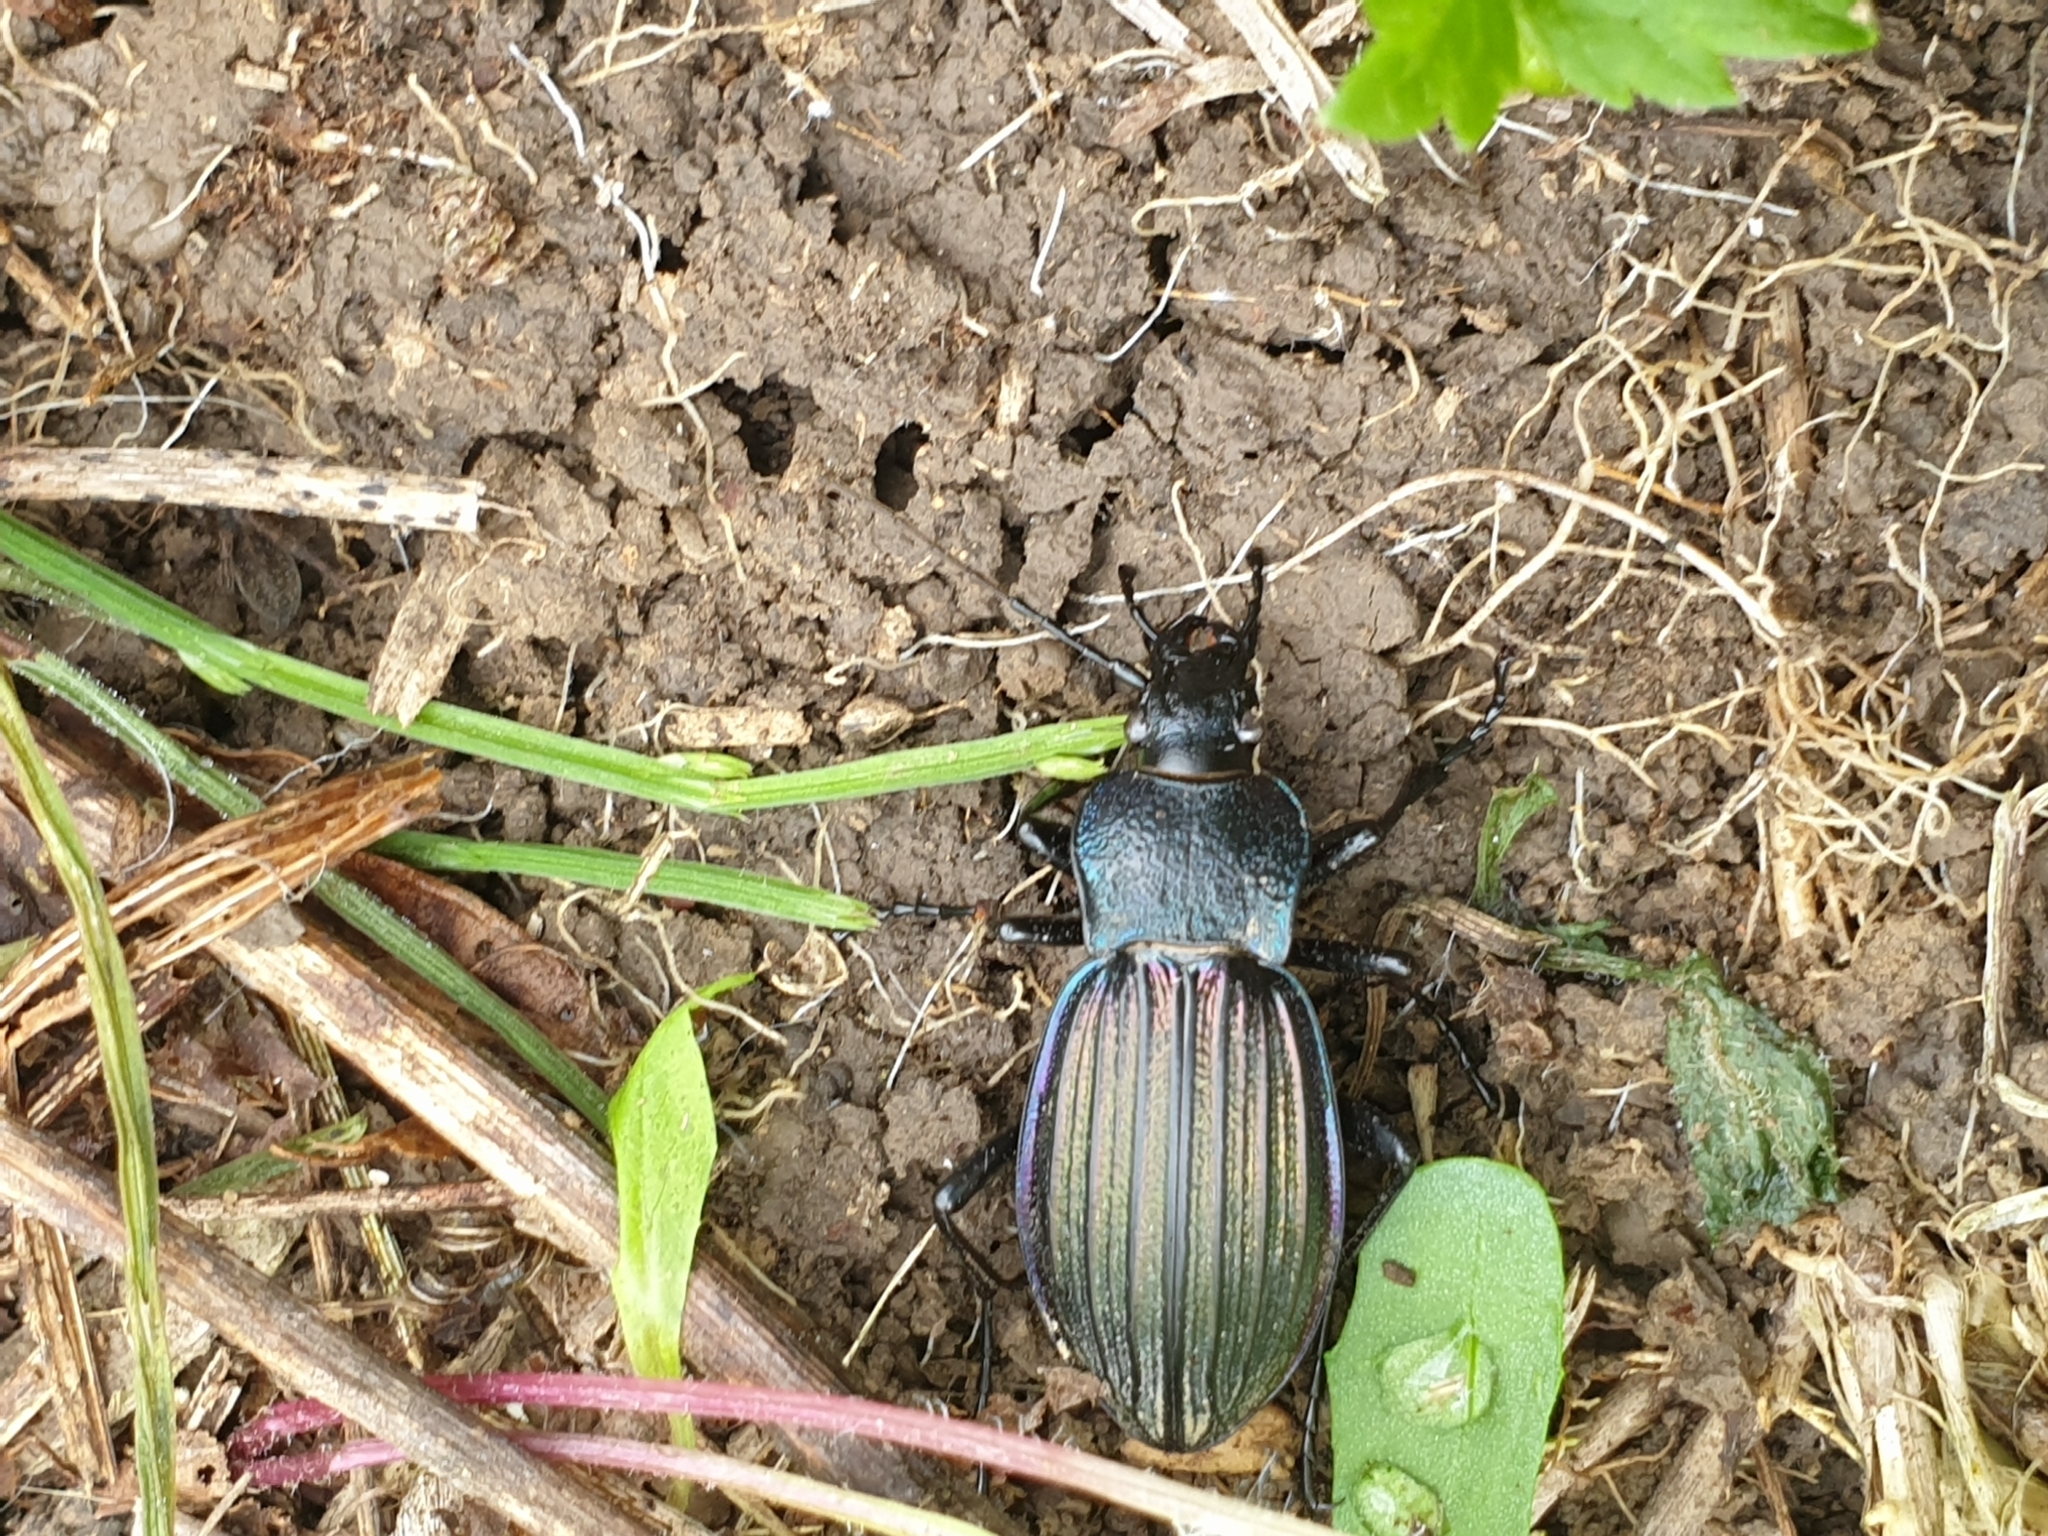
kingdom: Animalia
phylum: Arthropoda
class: Insecta
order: Coleoptera
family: Carabidae
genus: Carabus
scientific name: Carabus exaratus
